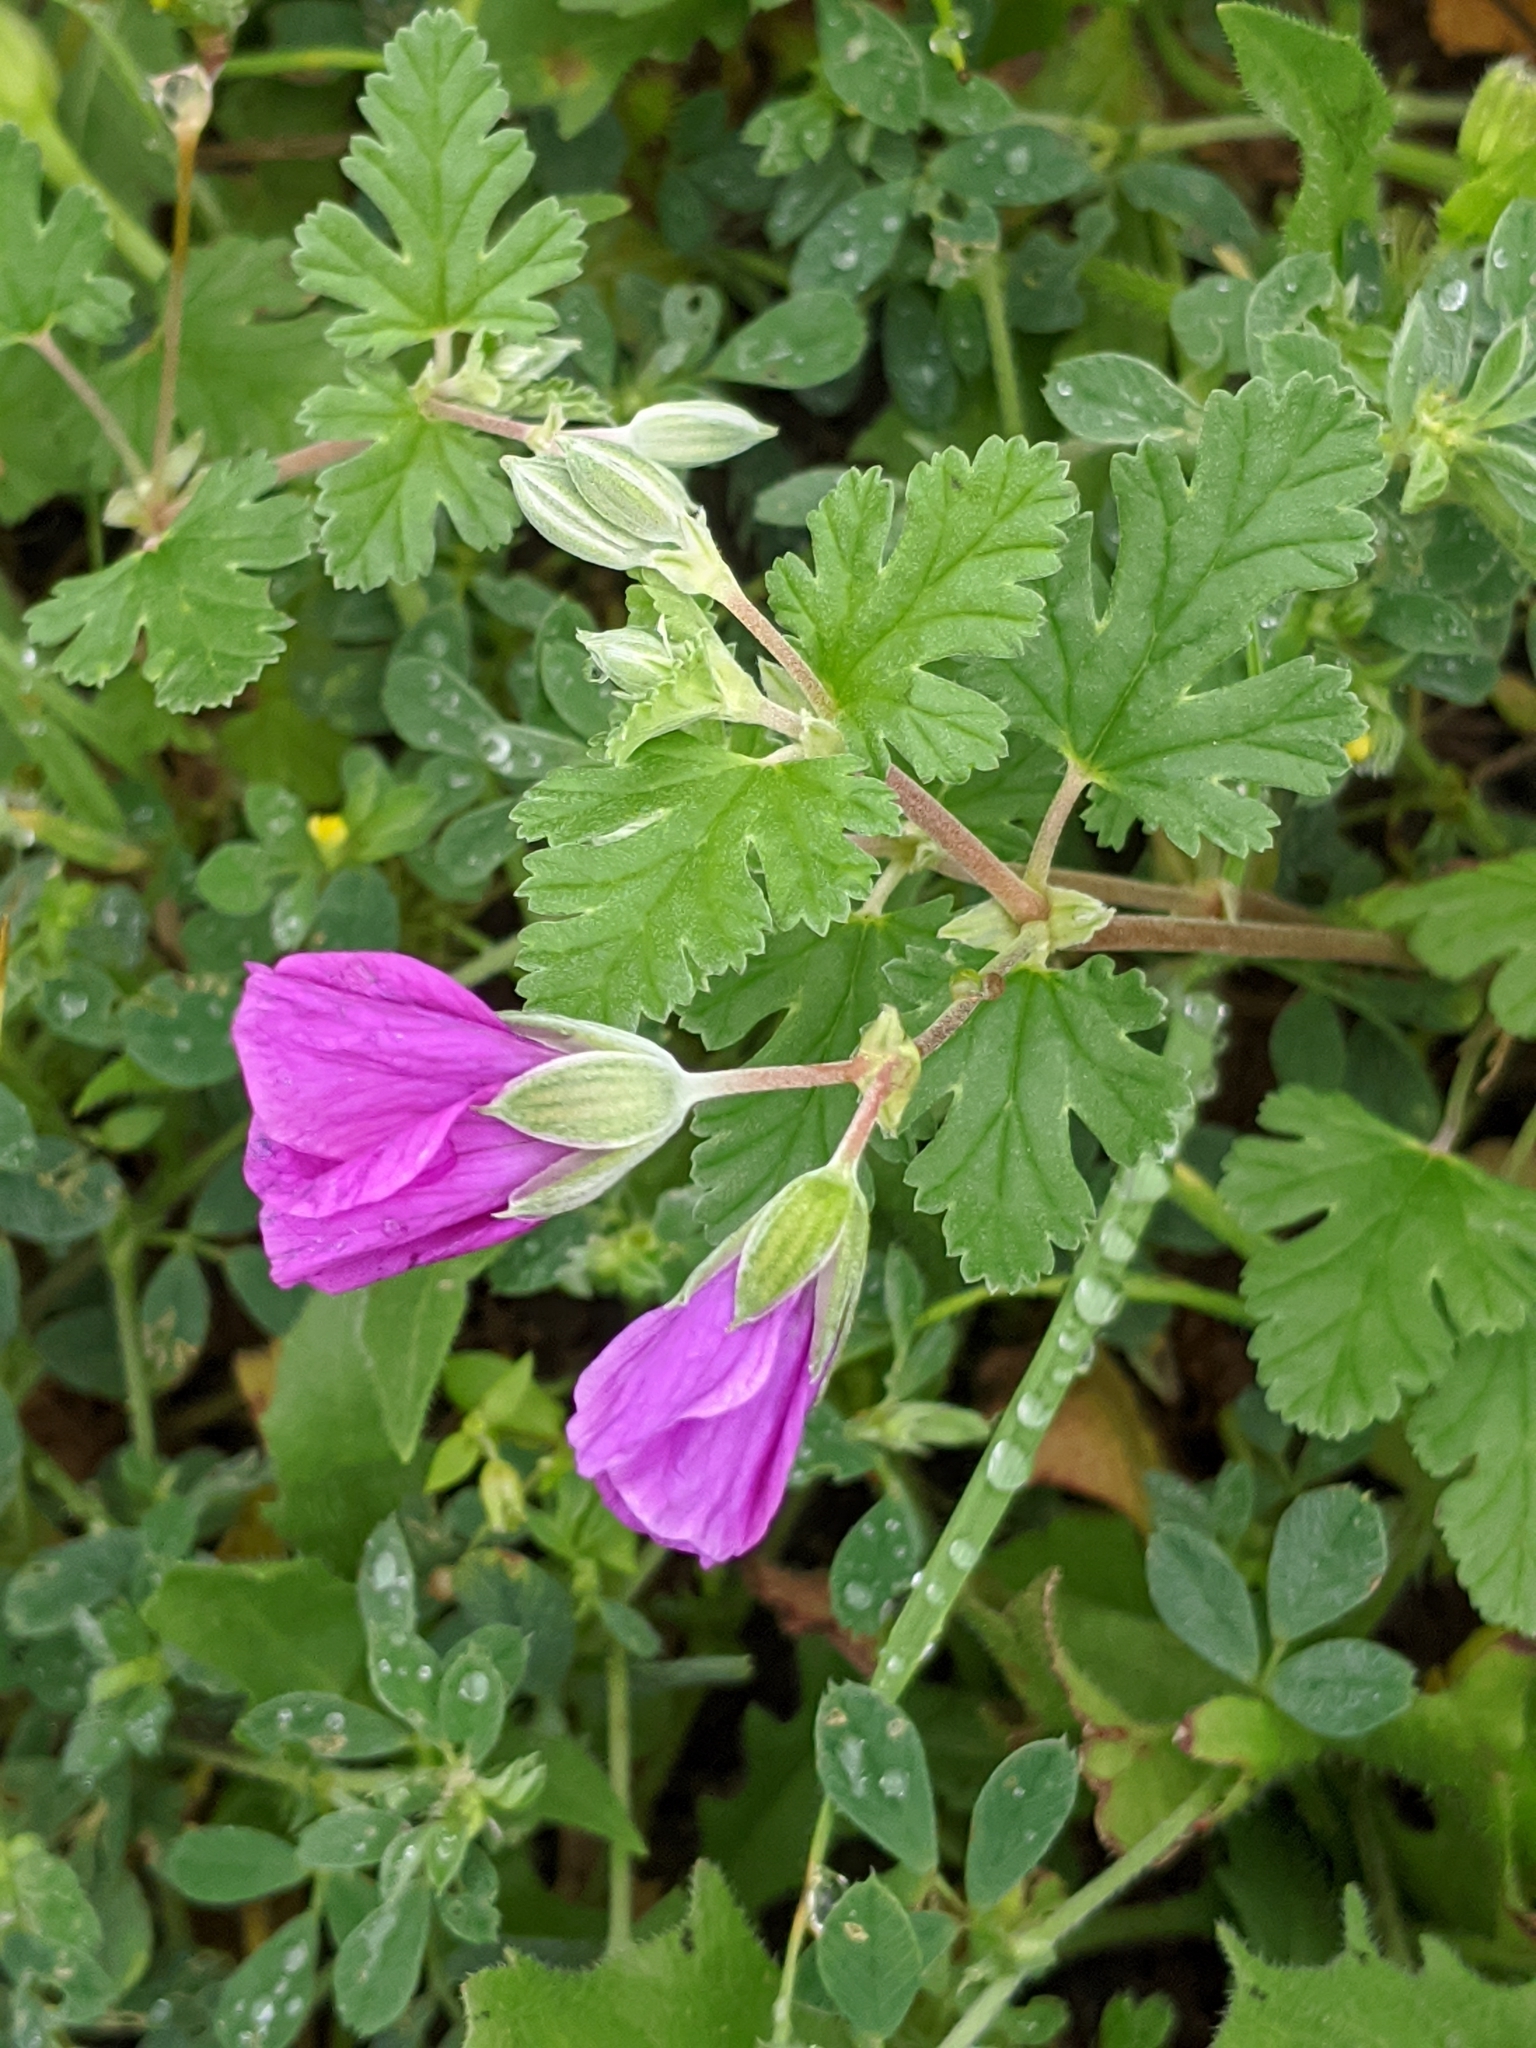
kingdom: Plantae
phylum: Tracheophyta
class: Magnoliopsida
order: Geraniales
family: Geraniaceae
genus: Erodium
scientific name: Erodium texanum
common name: Texas stork's-bill
